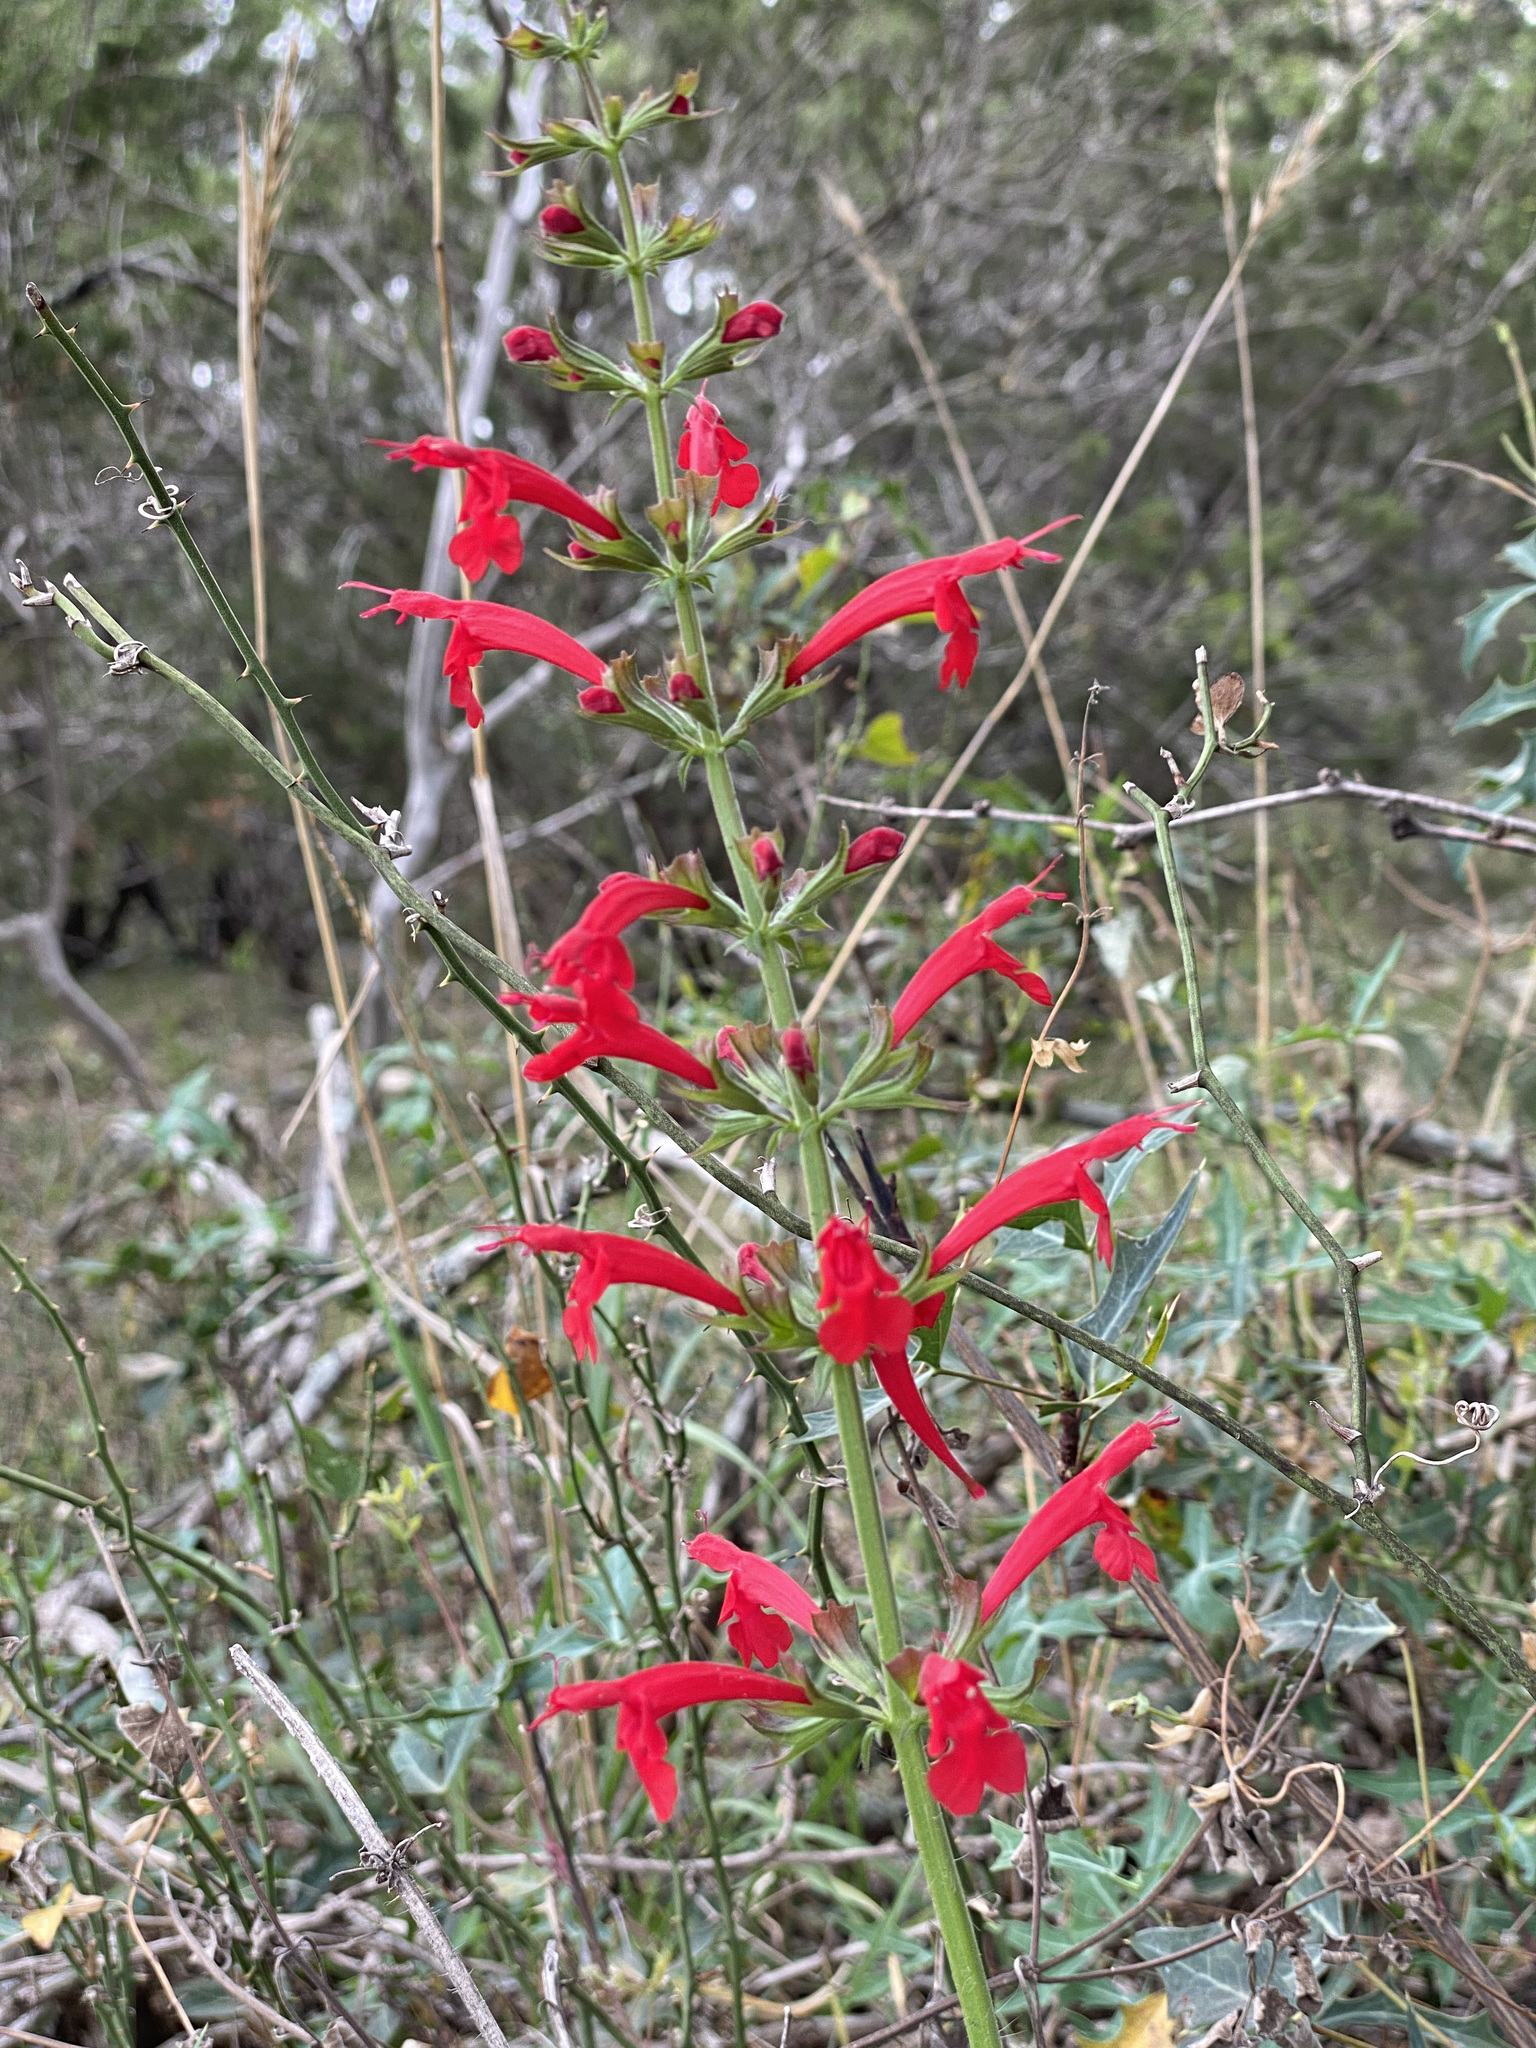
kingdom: Plantae
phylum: Tracheophyta
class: Magnoliopsida
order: Lamiales
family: Lamiaceae
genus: Salvia
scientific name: Salvia roemeriana
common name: Cedar sage
